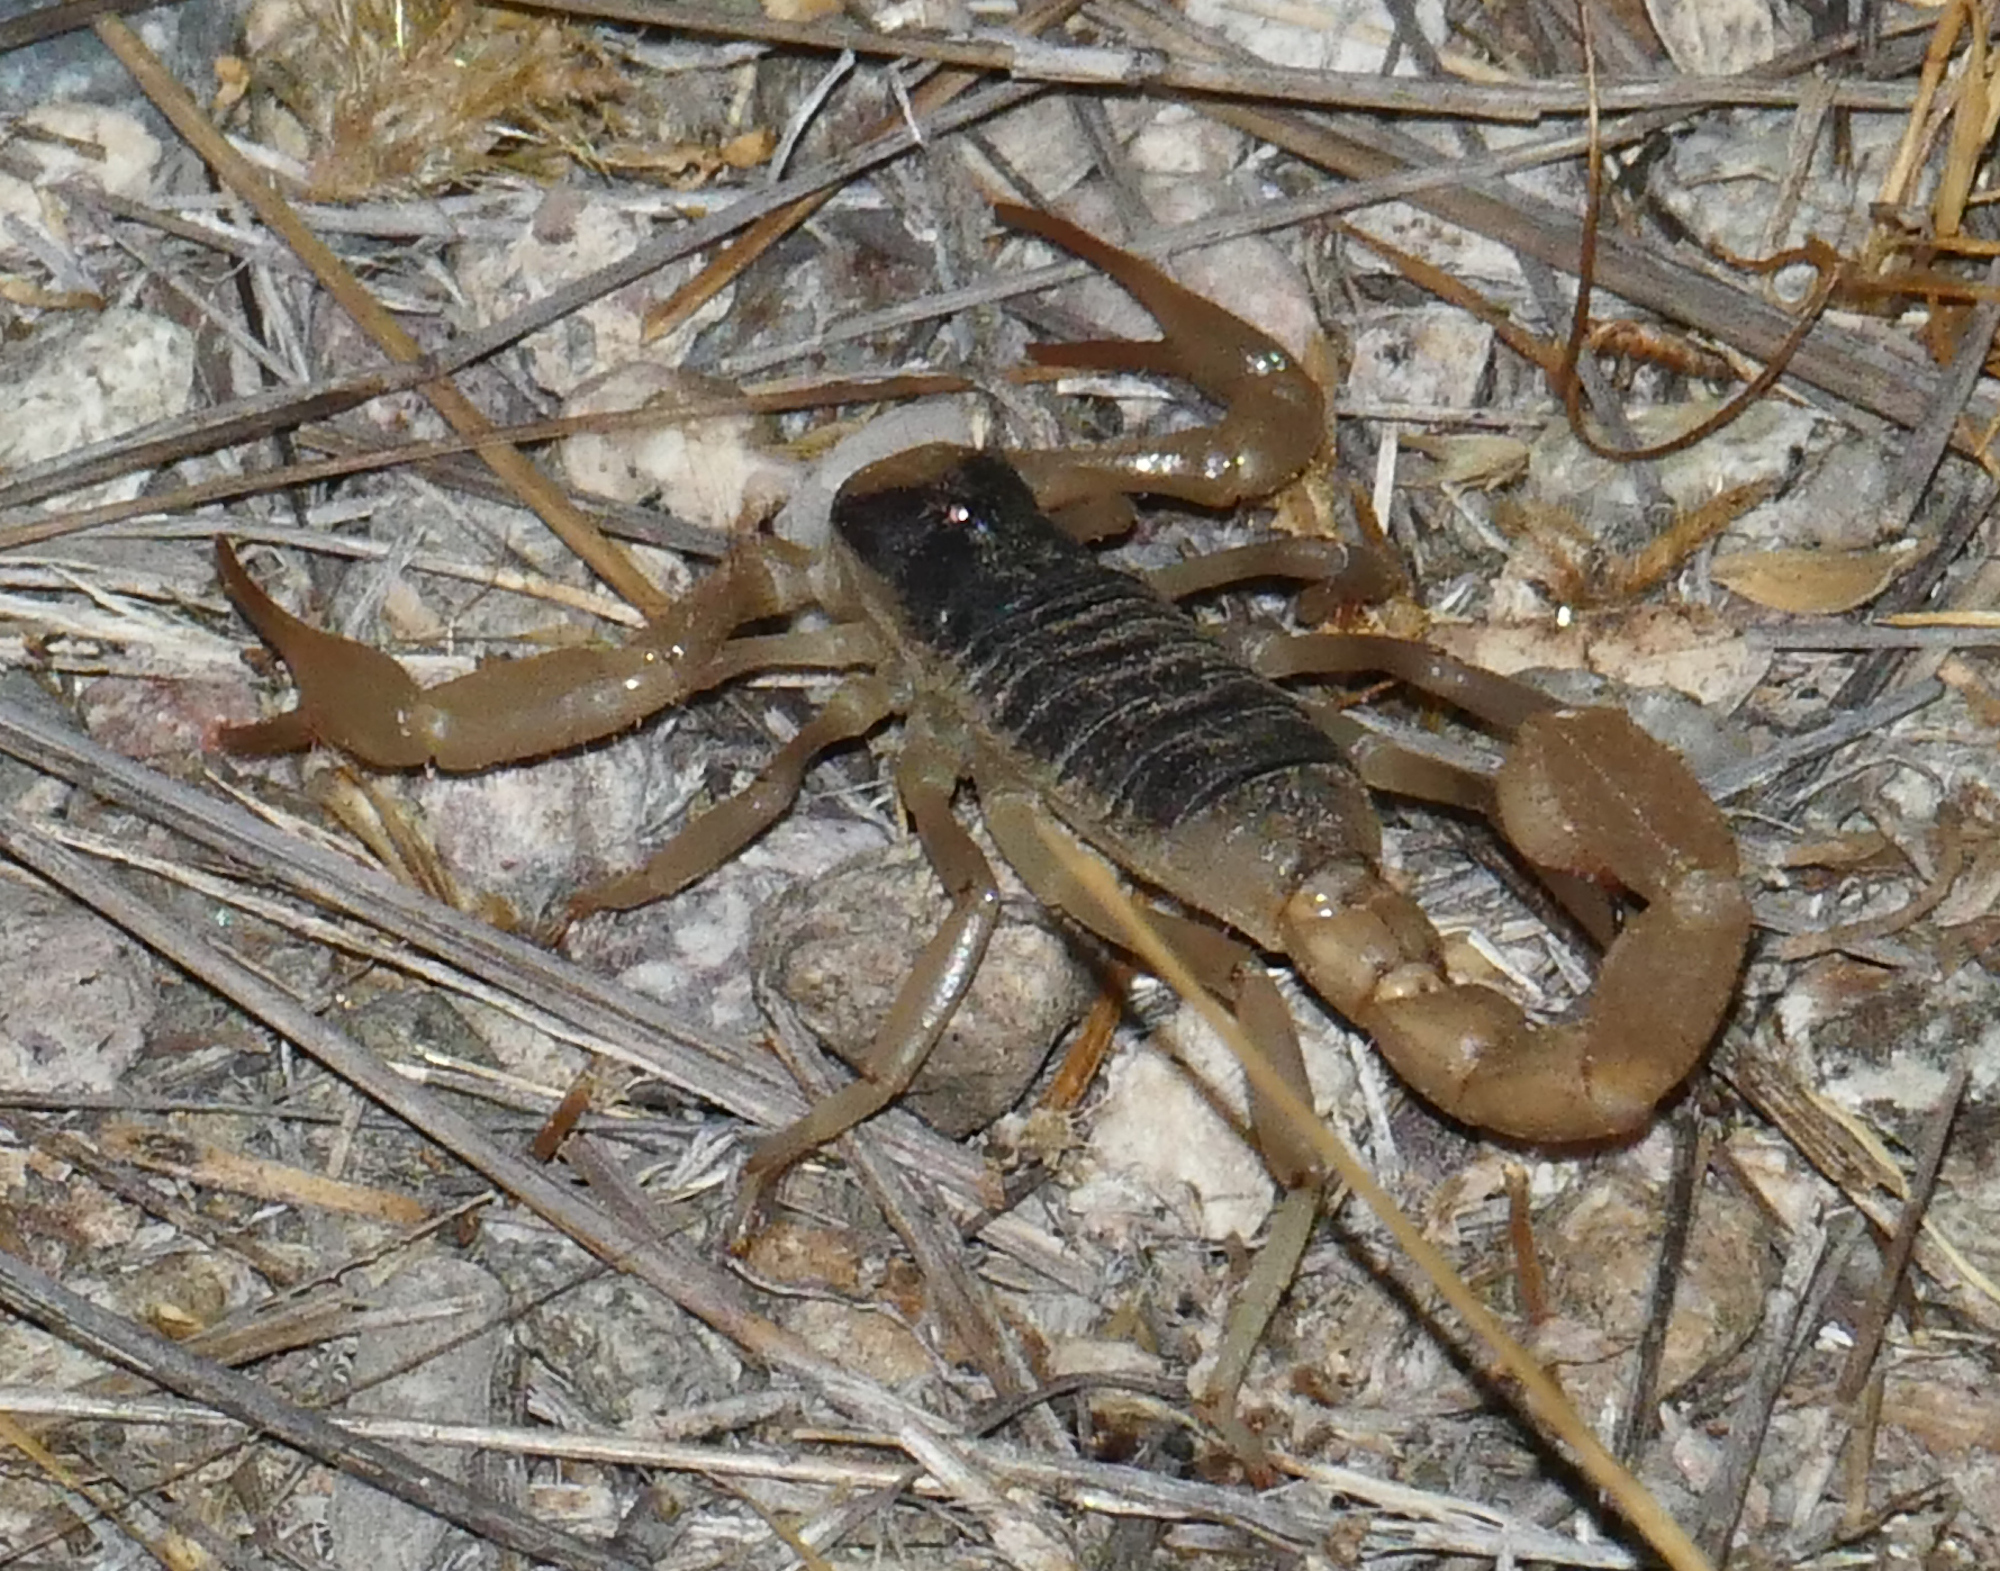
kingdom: Animalia
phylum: Arthropoda
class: Arachnida
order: Scorpiones
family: Hadruridae
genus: Hadrurus
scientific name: Hadrurus arizonensis
